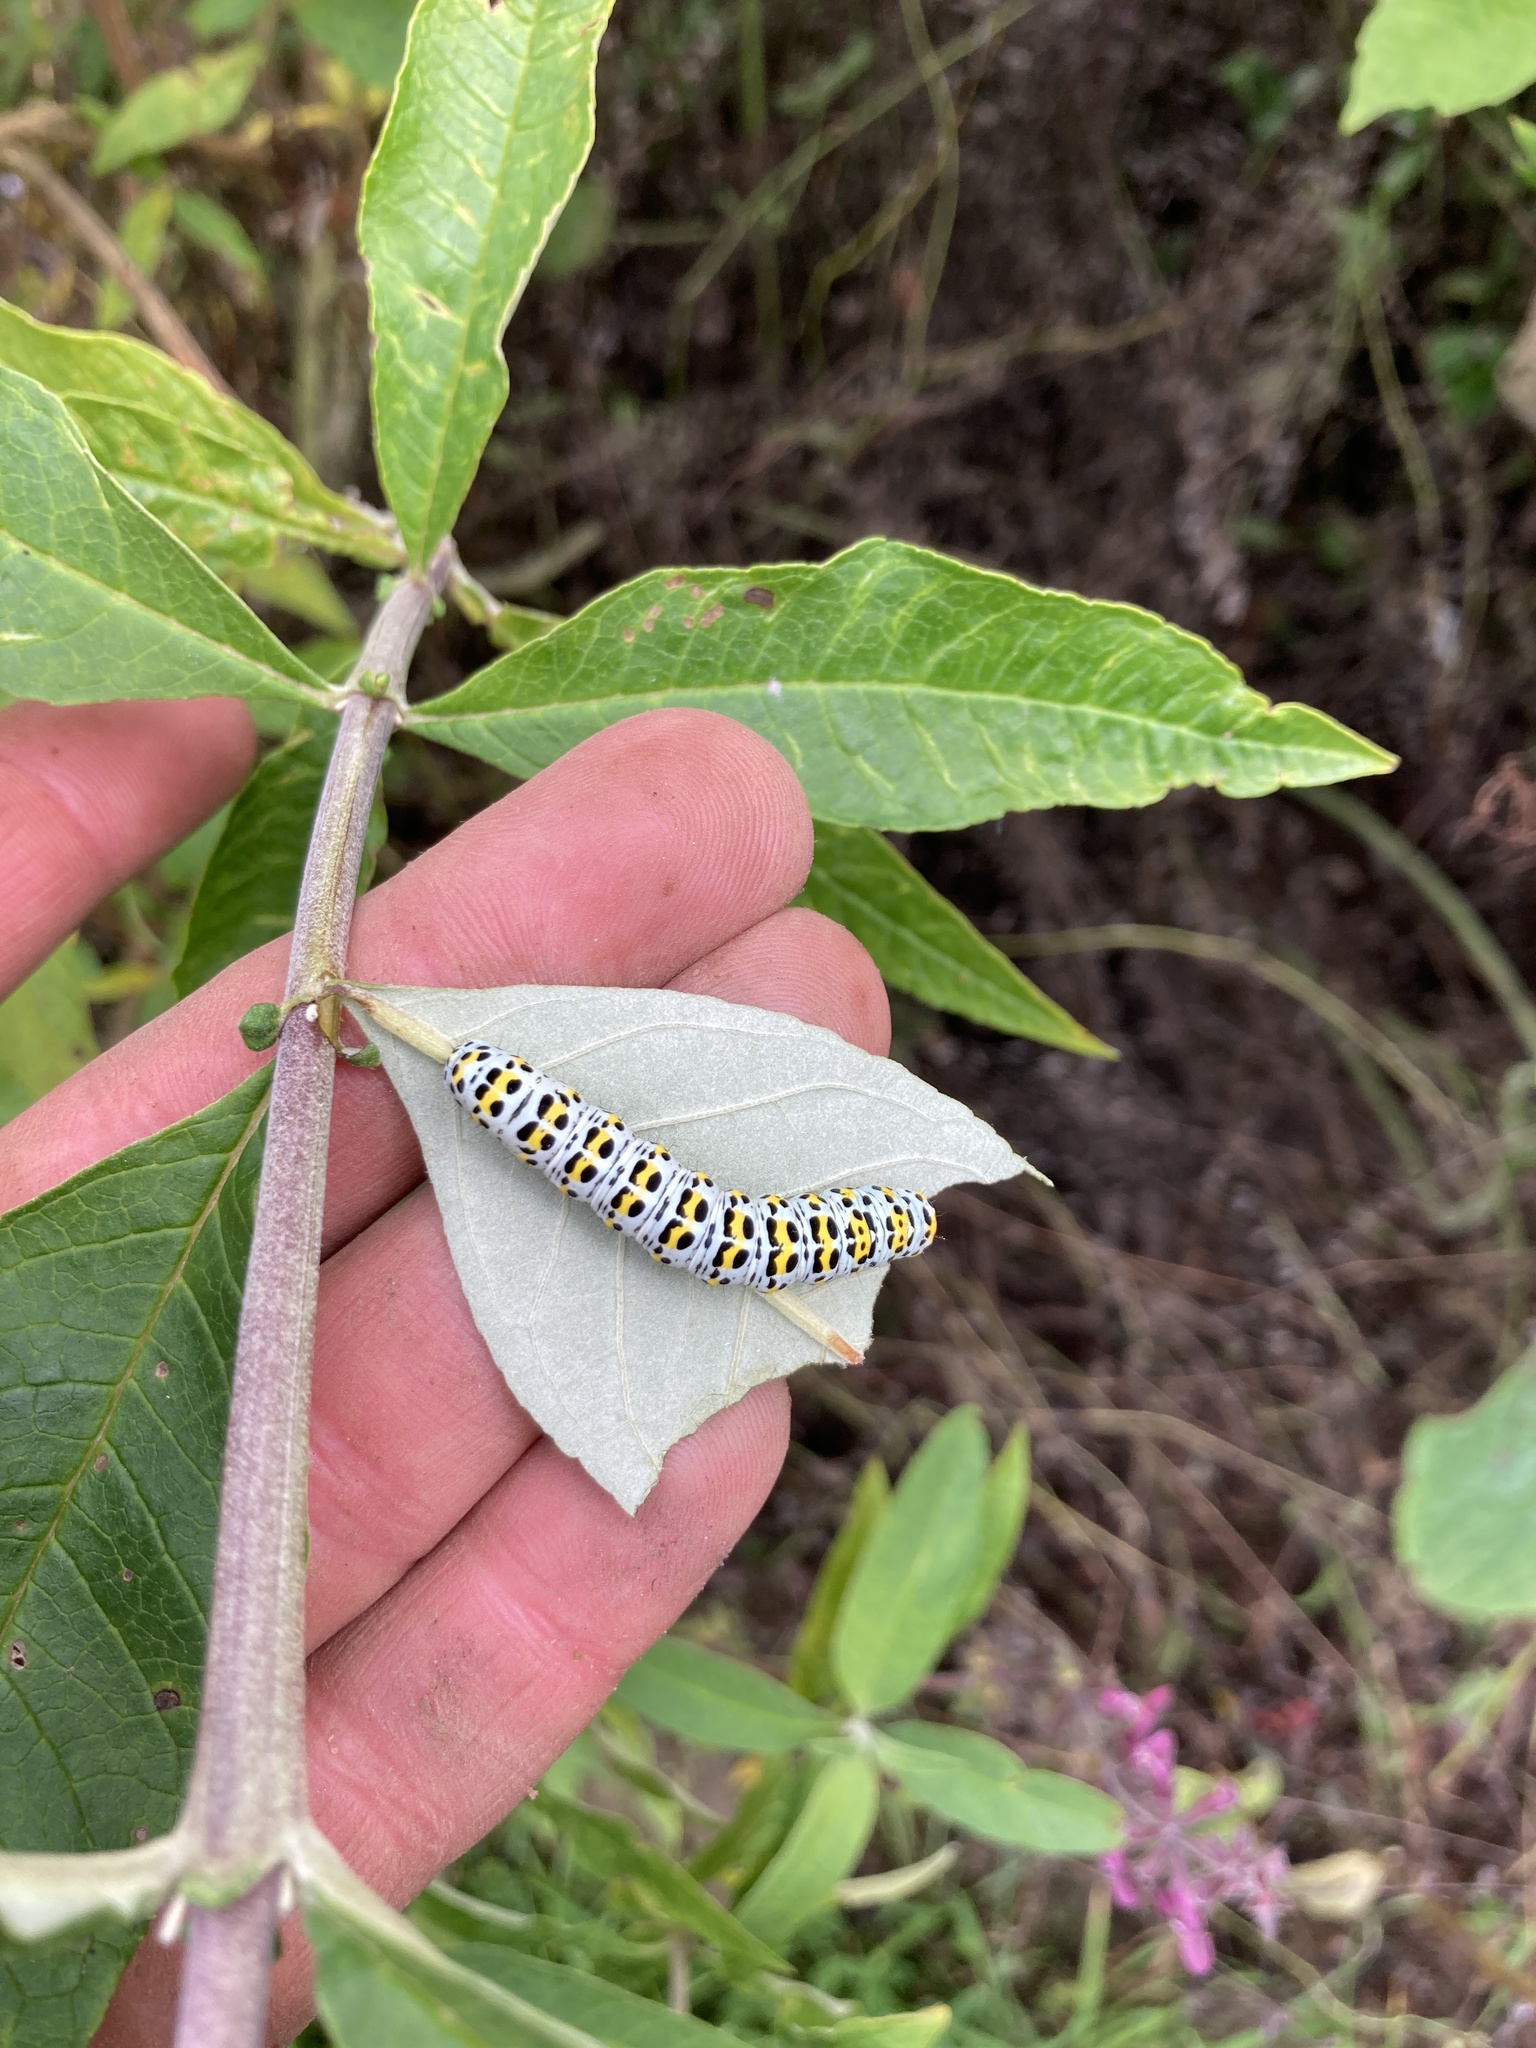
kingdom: Animalia
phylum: Arthropoda
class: Insecta
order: Lepidoptera
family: Noctuidae
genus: Cucullia
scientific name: Cucullia verbasci
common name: Mullein
